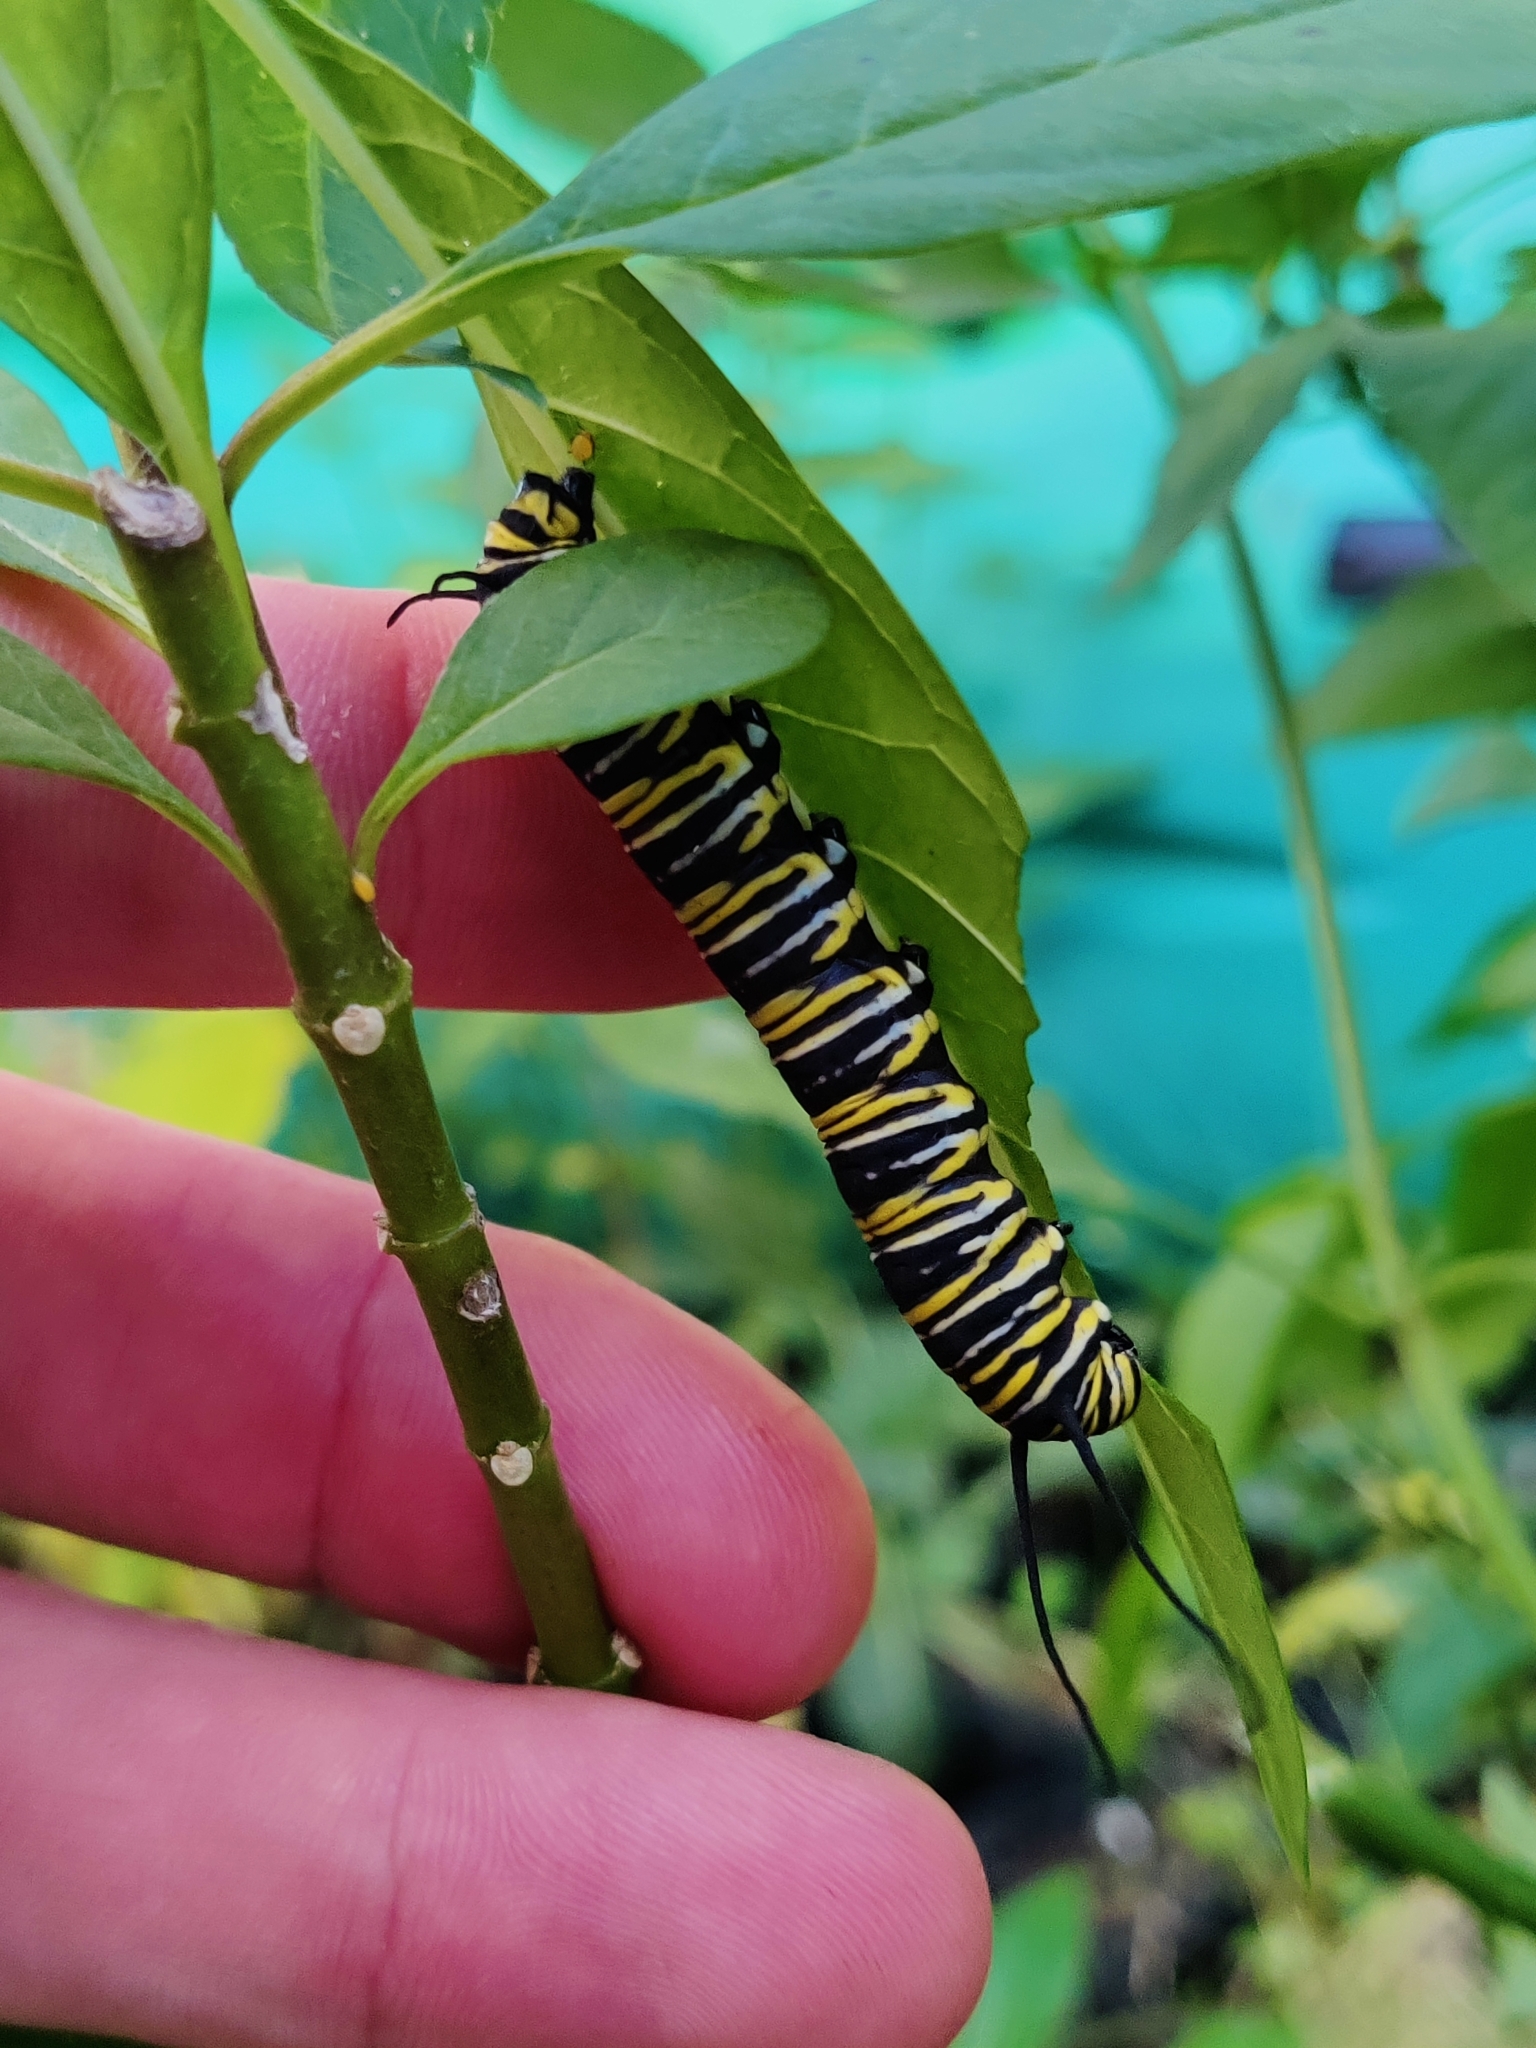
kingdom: Animalia
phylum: Arthropoda
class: Insecta
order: Lepidoptera
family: Nymphalidae
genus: Danaus
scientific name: Danaus plexippus
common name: Monarch
